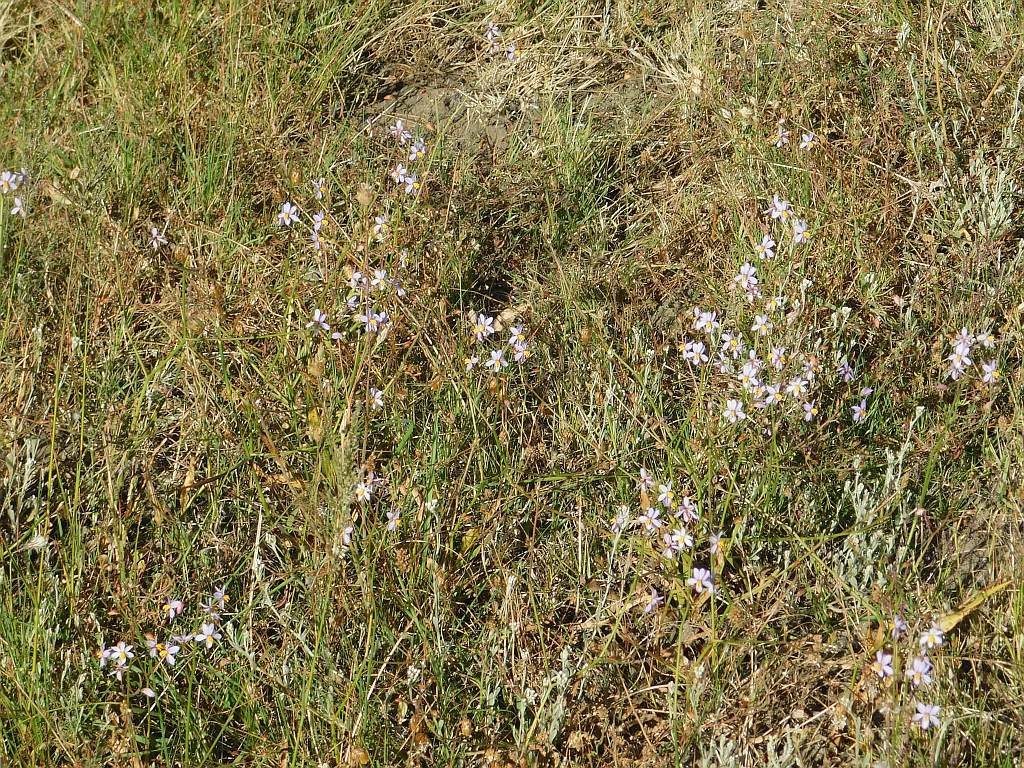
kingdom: Plantae
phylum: Tracheophyta
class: Liliopsida
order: Asparagales
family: Tecophilaeaceae
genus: Cyanella
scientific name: Cyanella hyacinthoides
